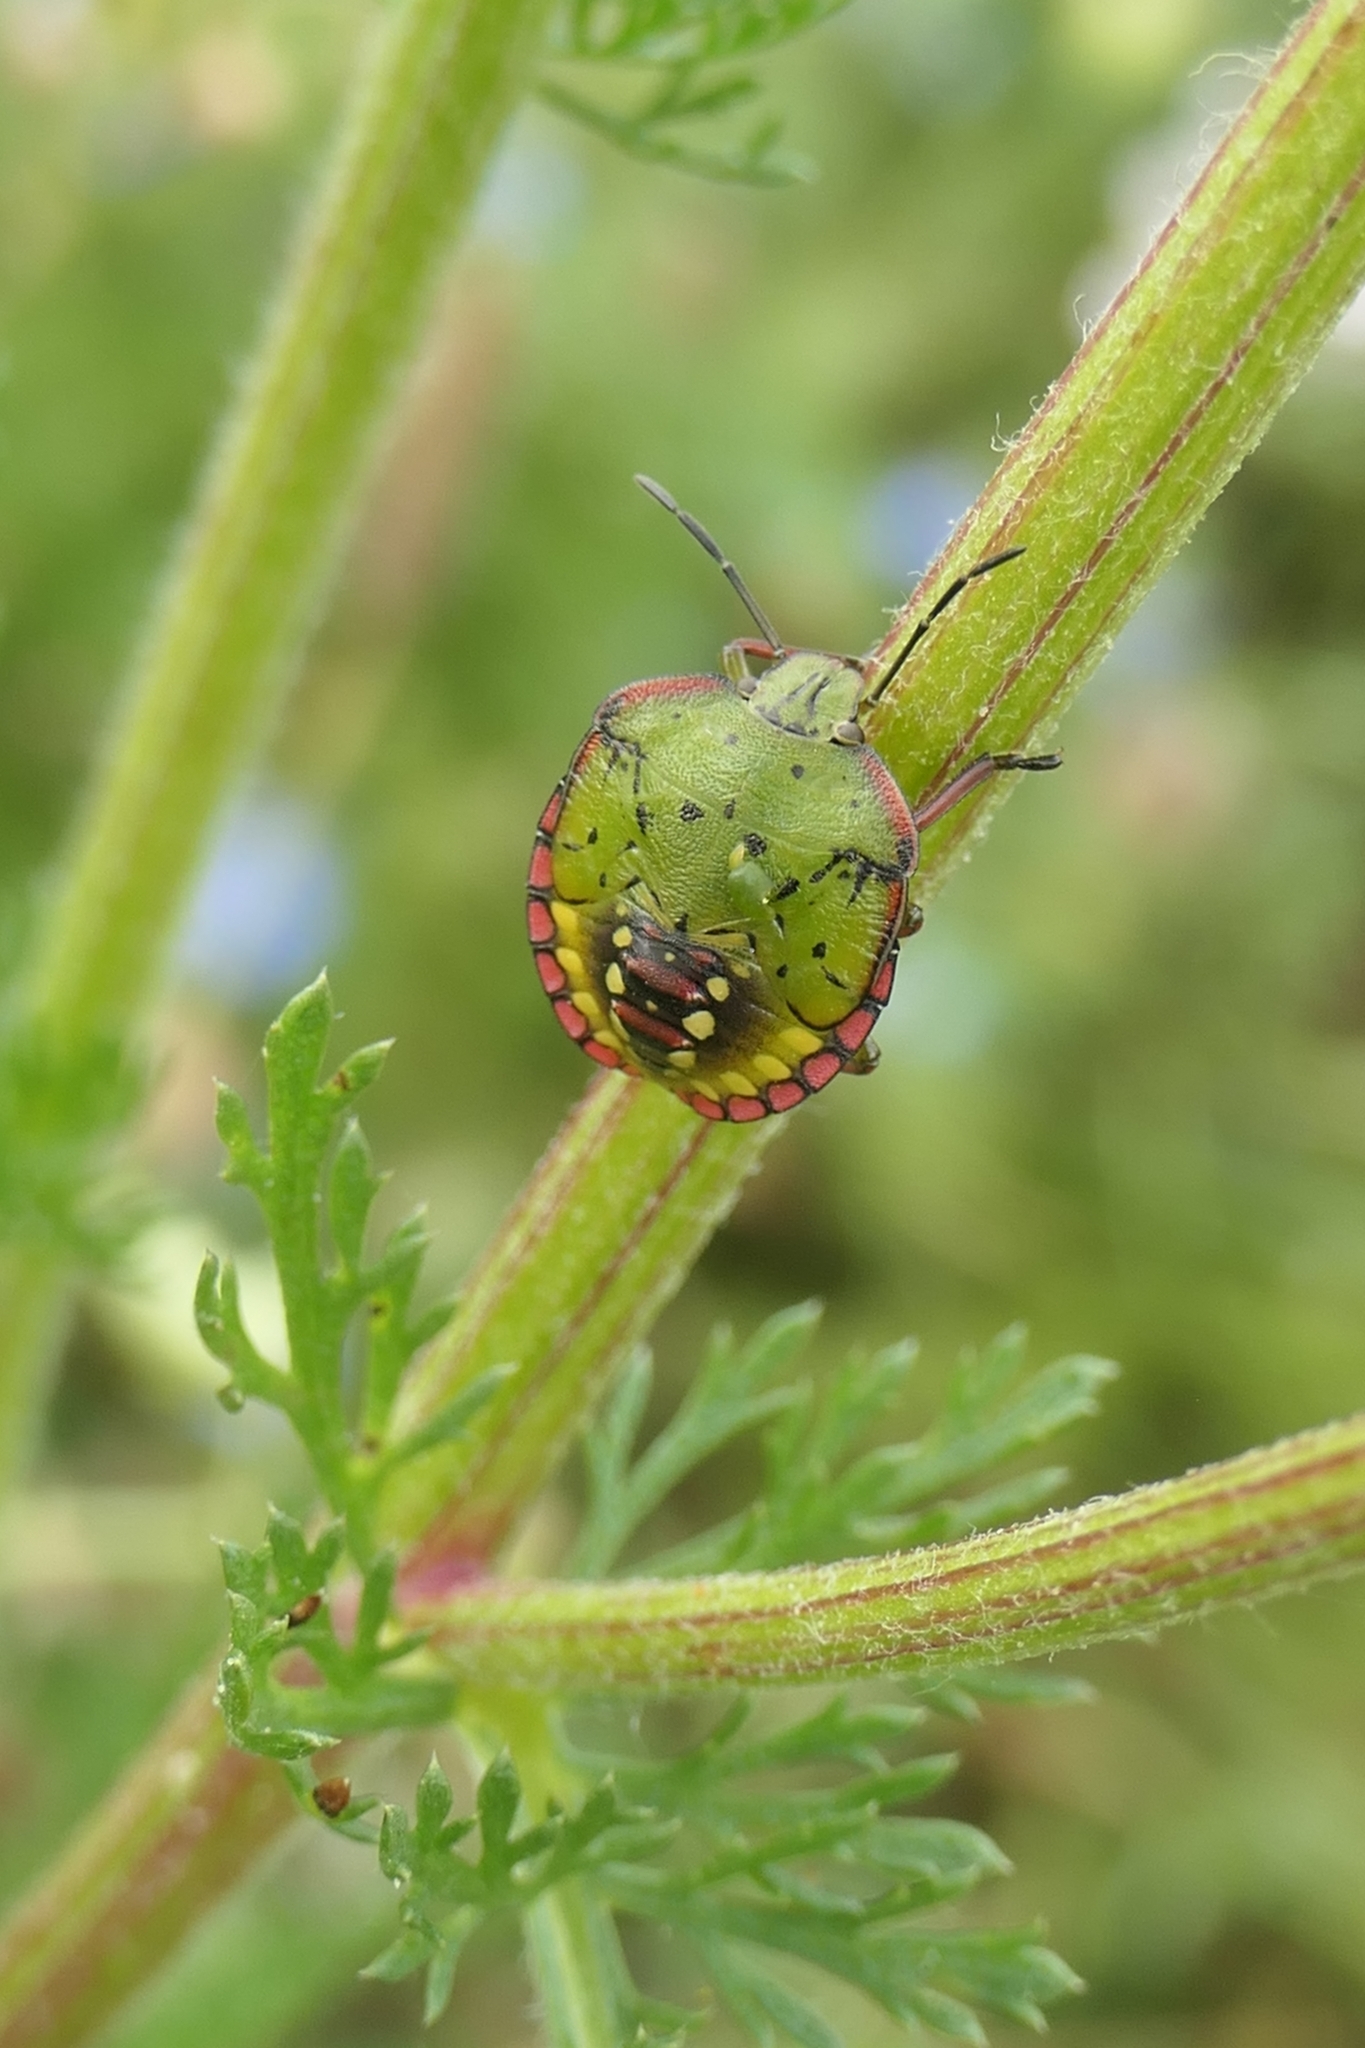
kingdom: Animalia
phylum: Arthropoda
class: Insecta
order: Hemiptera
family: Pentatomidae
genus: Nezara
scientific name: Nezara viridula
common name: Southern green stink bug
